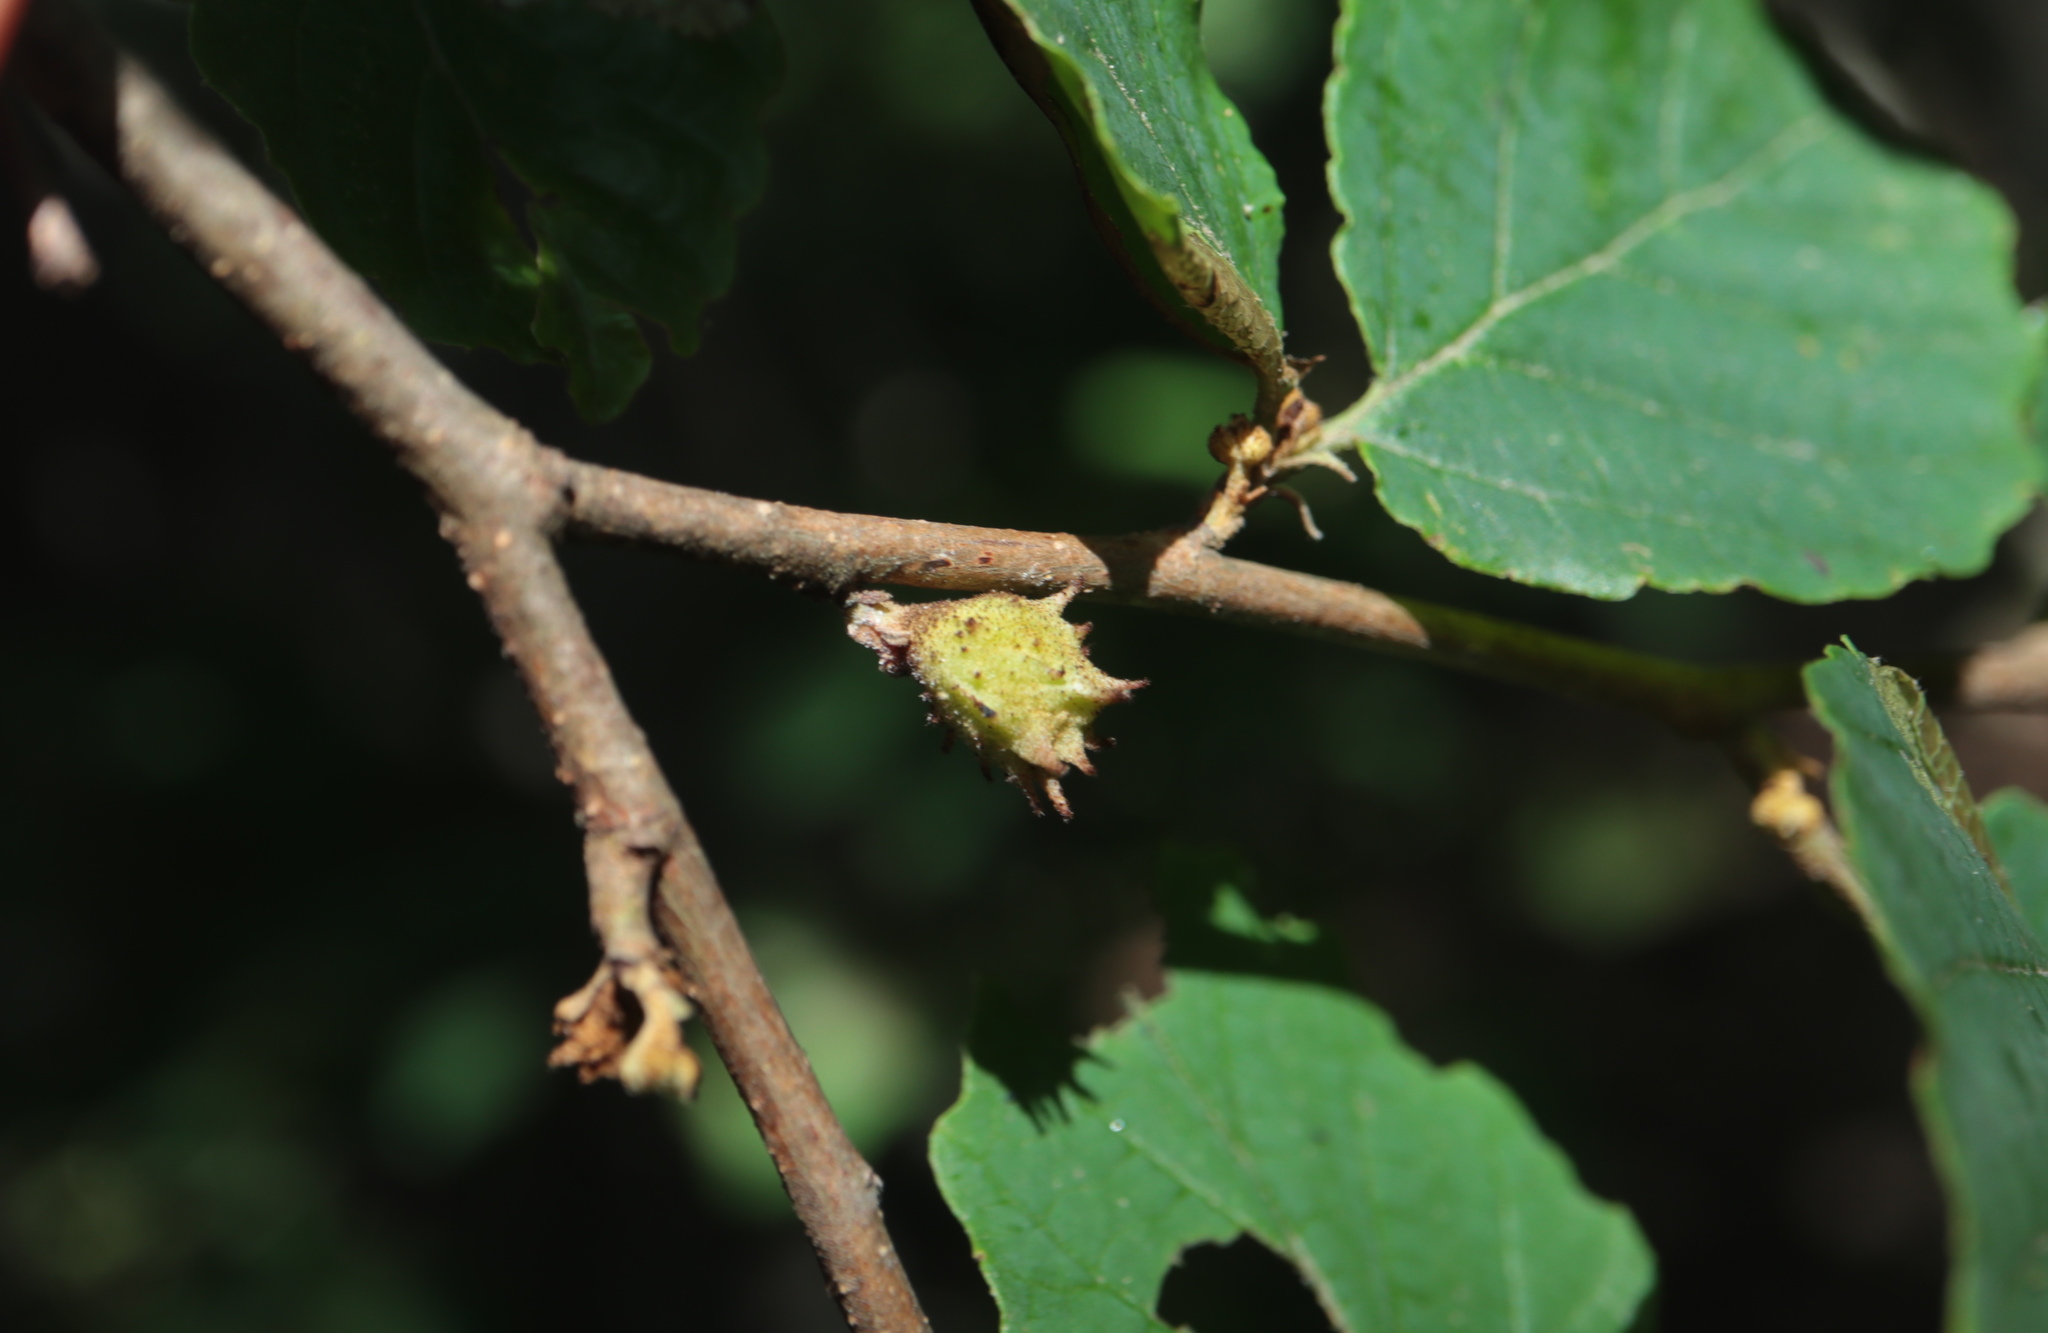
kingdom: Animalia
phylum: Arthropoda
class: Insecta
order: Hemiptera
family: Aphididae
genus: Hamamelistes
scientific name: Hamamelistes spinosus
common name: Witch hazel gall aphid
